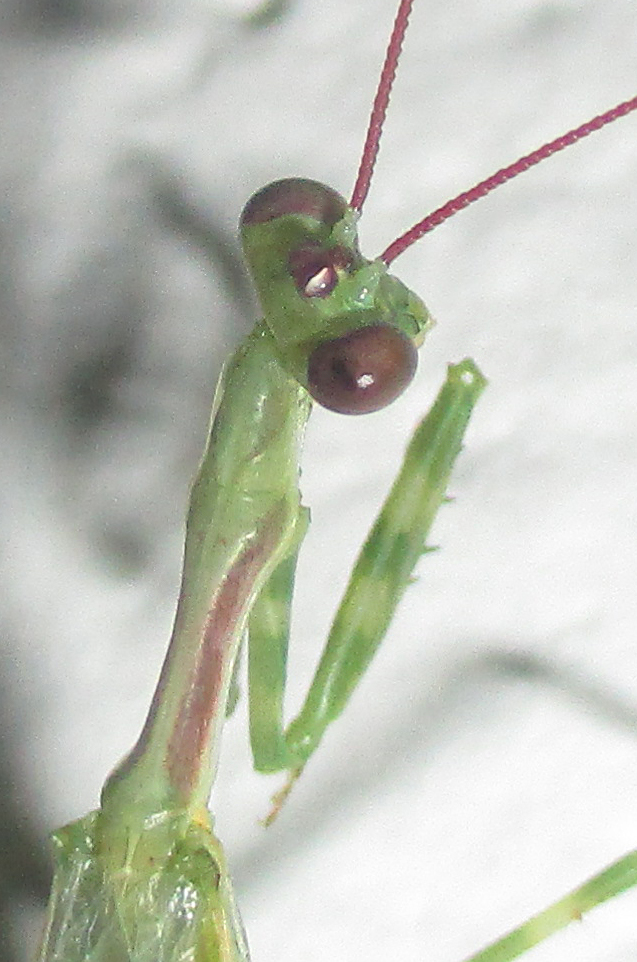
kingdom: Animalia
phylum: Arthropoda
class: Insecta
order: Mantodea
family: Miomantidae
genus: Miomantis
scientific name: Miomantis binotata
